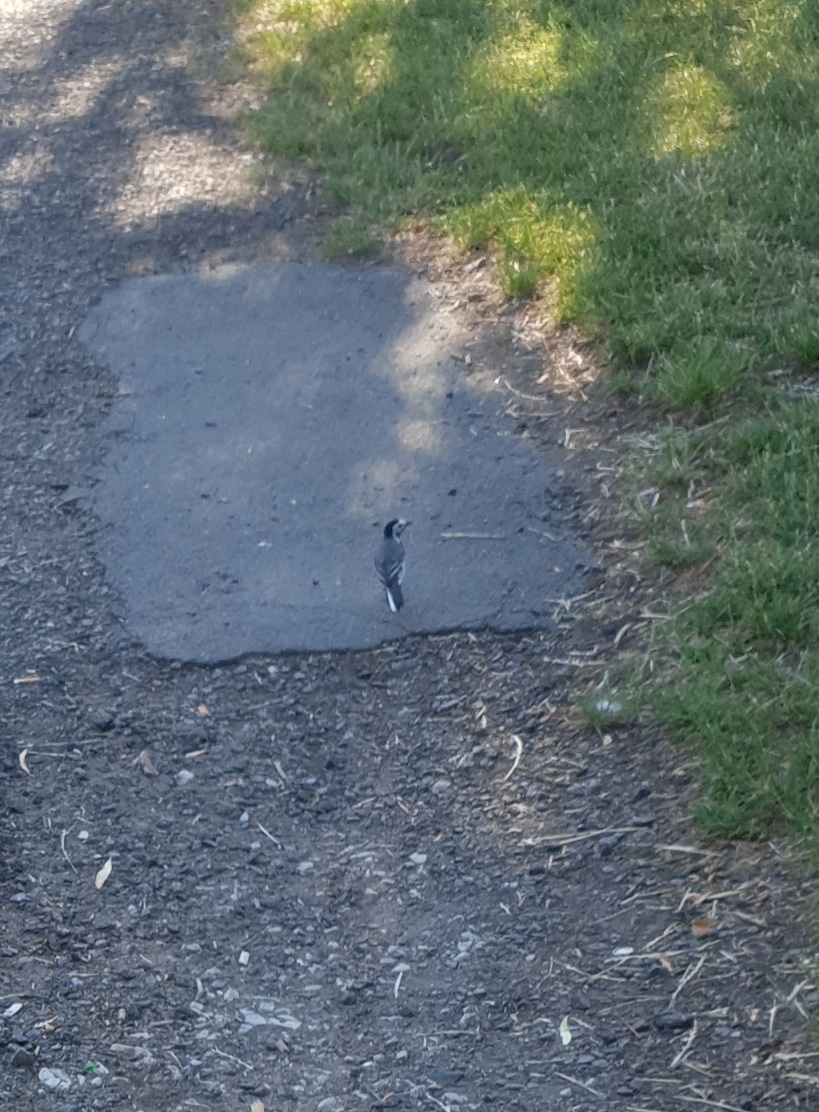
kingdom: Animalia
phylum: Chordata
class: Aves
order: Passeriformes
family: Motacillidae
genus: Motacilla
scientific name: Motacilla alba
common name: White wagtail
